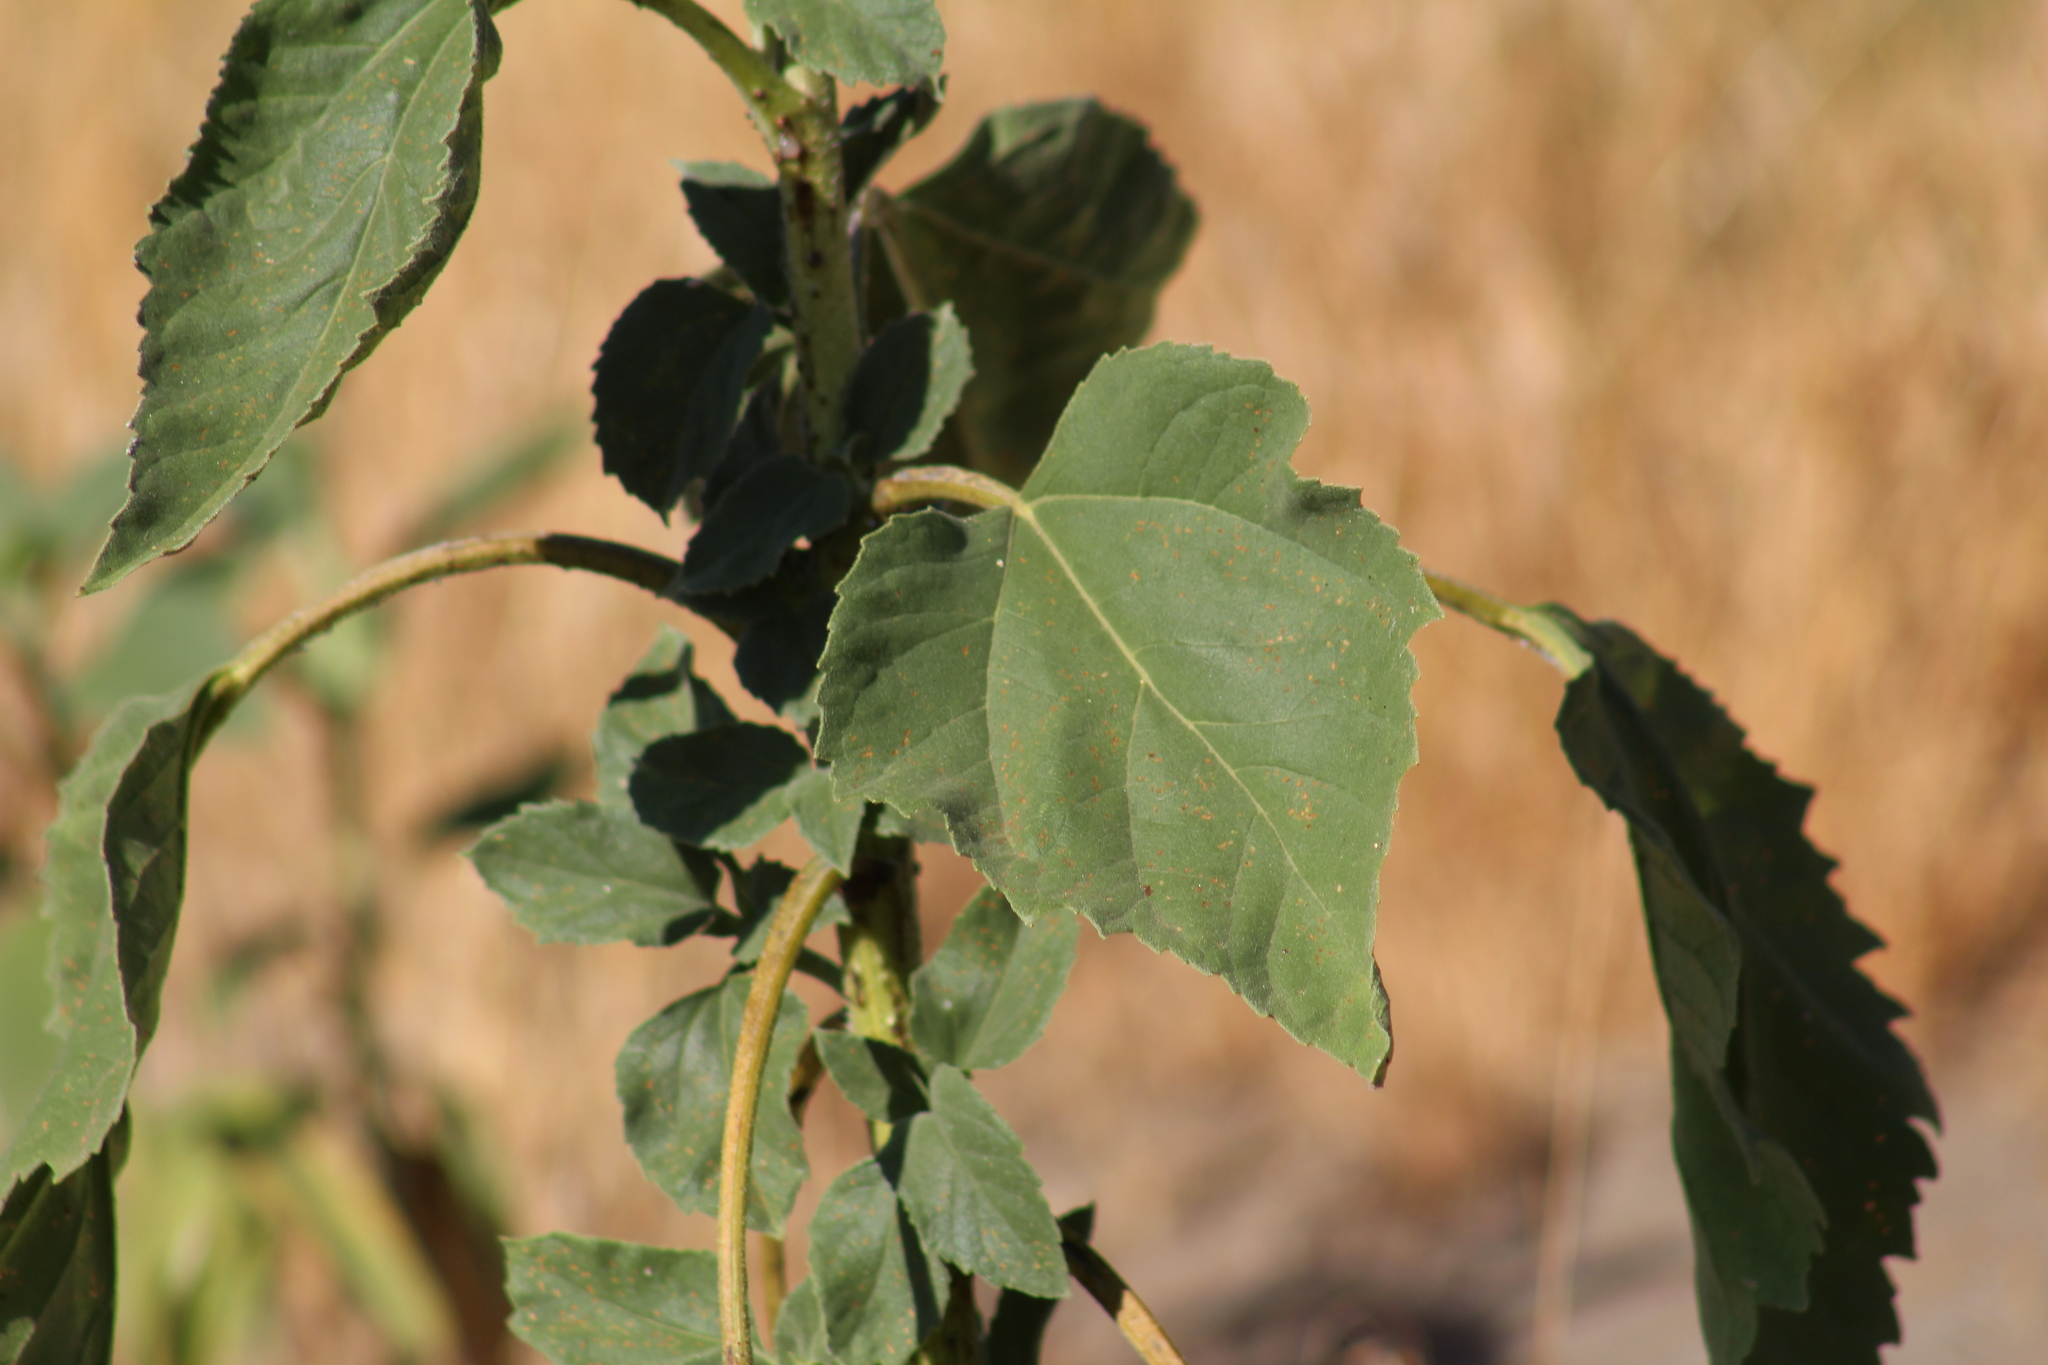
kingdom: Plantae
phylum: Tracheophyta
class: Magnoliopsida
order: Asterales
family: Asteraceae
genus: Helianthus
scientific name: Helianthus annuus
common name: Sunflower
